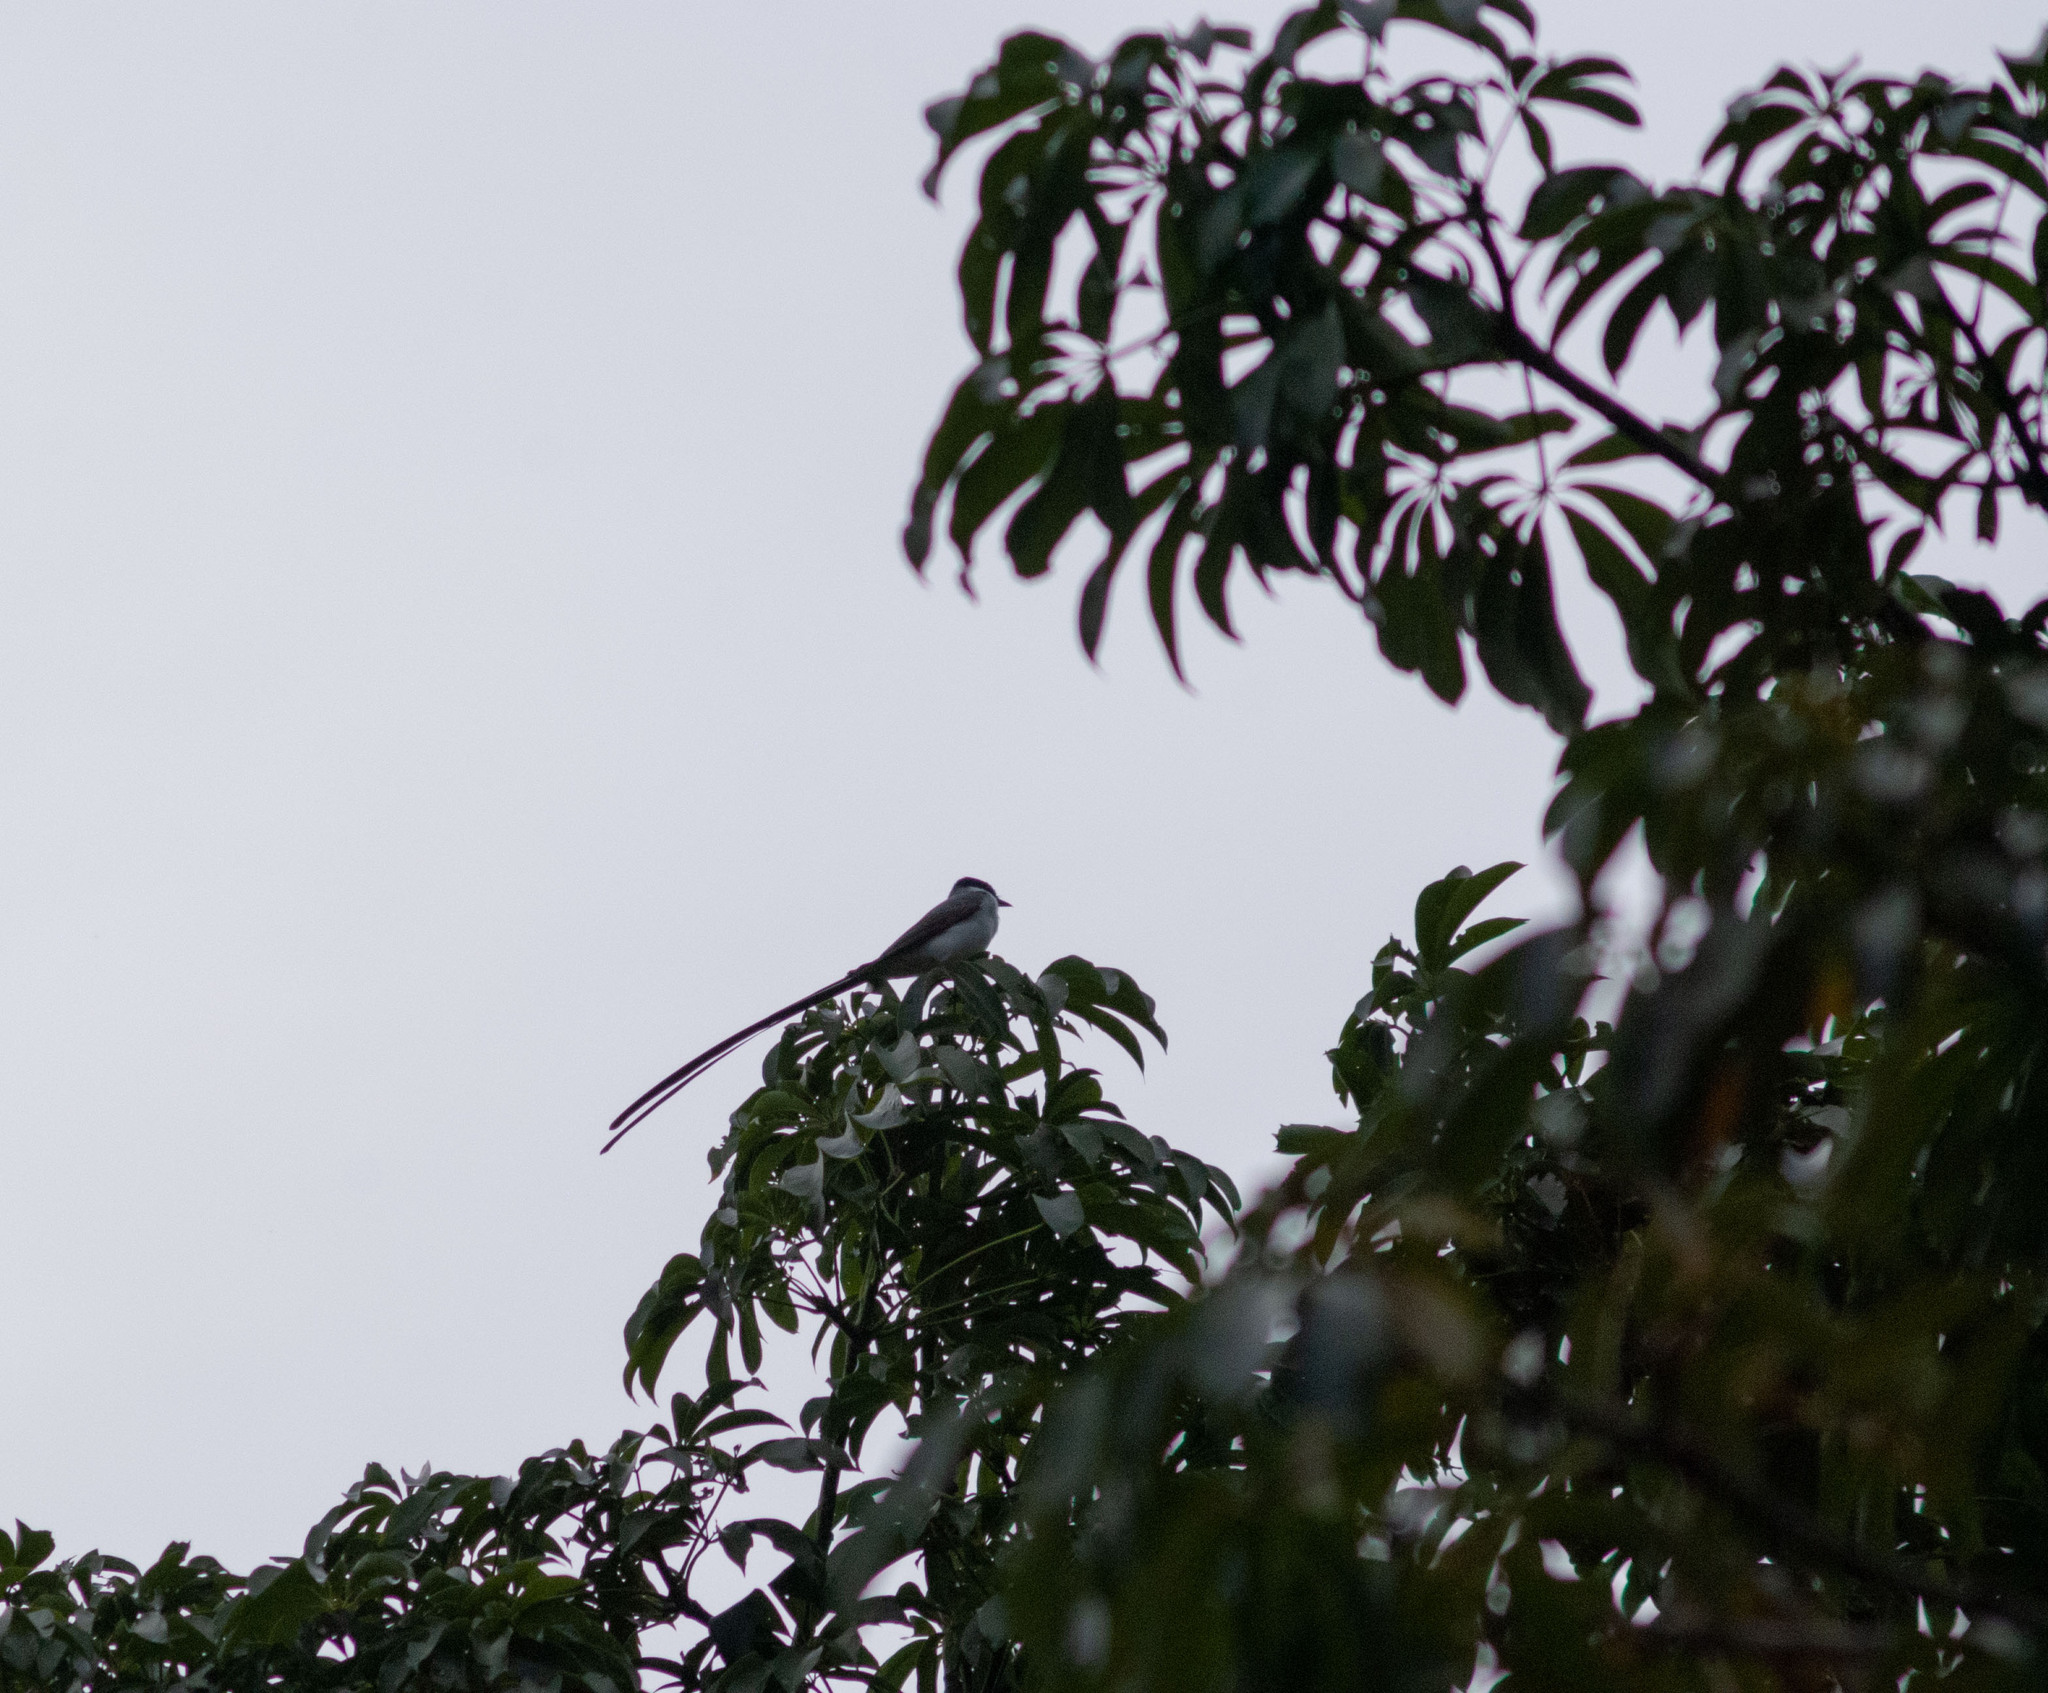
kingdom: Animalia
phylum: Chordata
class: Aves
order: Passeriformes
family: Tyrannidae
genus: Tyrannus
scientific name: Tyrannus savana
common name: Fork-tailed flycatcher
